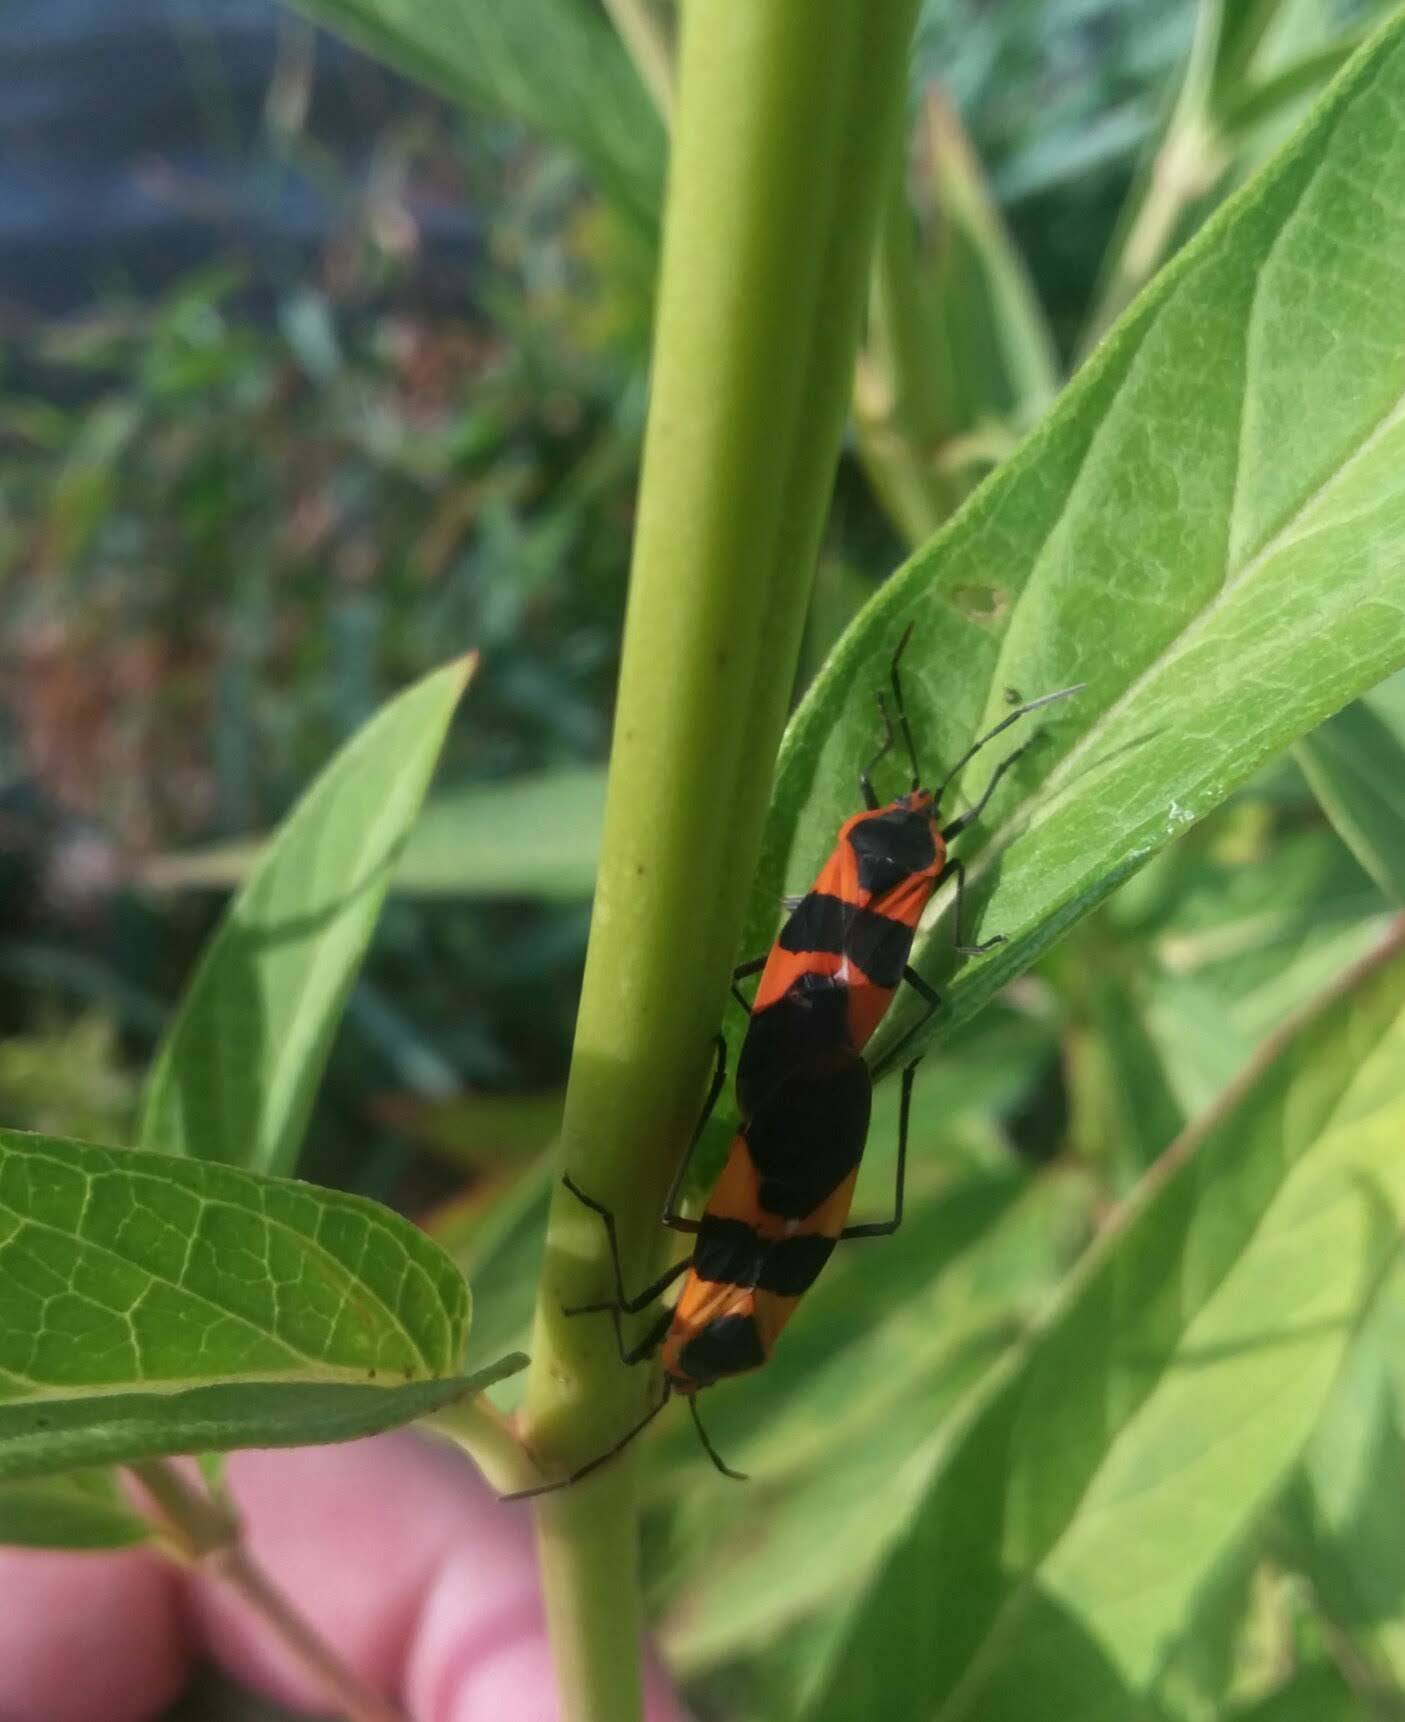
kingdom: Animalia
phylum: Arthropoda
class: Insecta
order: Hemiptera
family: Lygaeidae
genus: Oncopeltus
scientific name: Oncopeltus fasciatus
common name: Large milkweed bug
